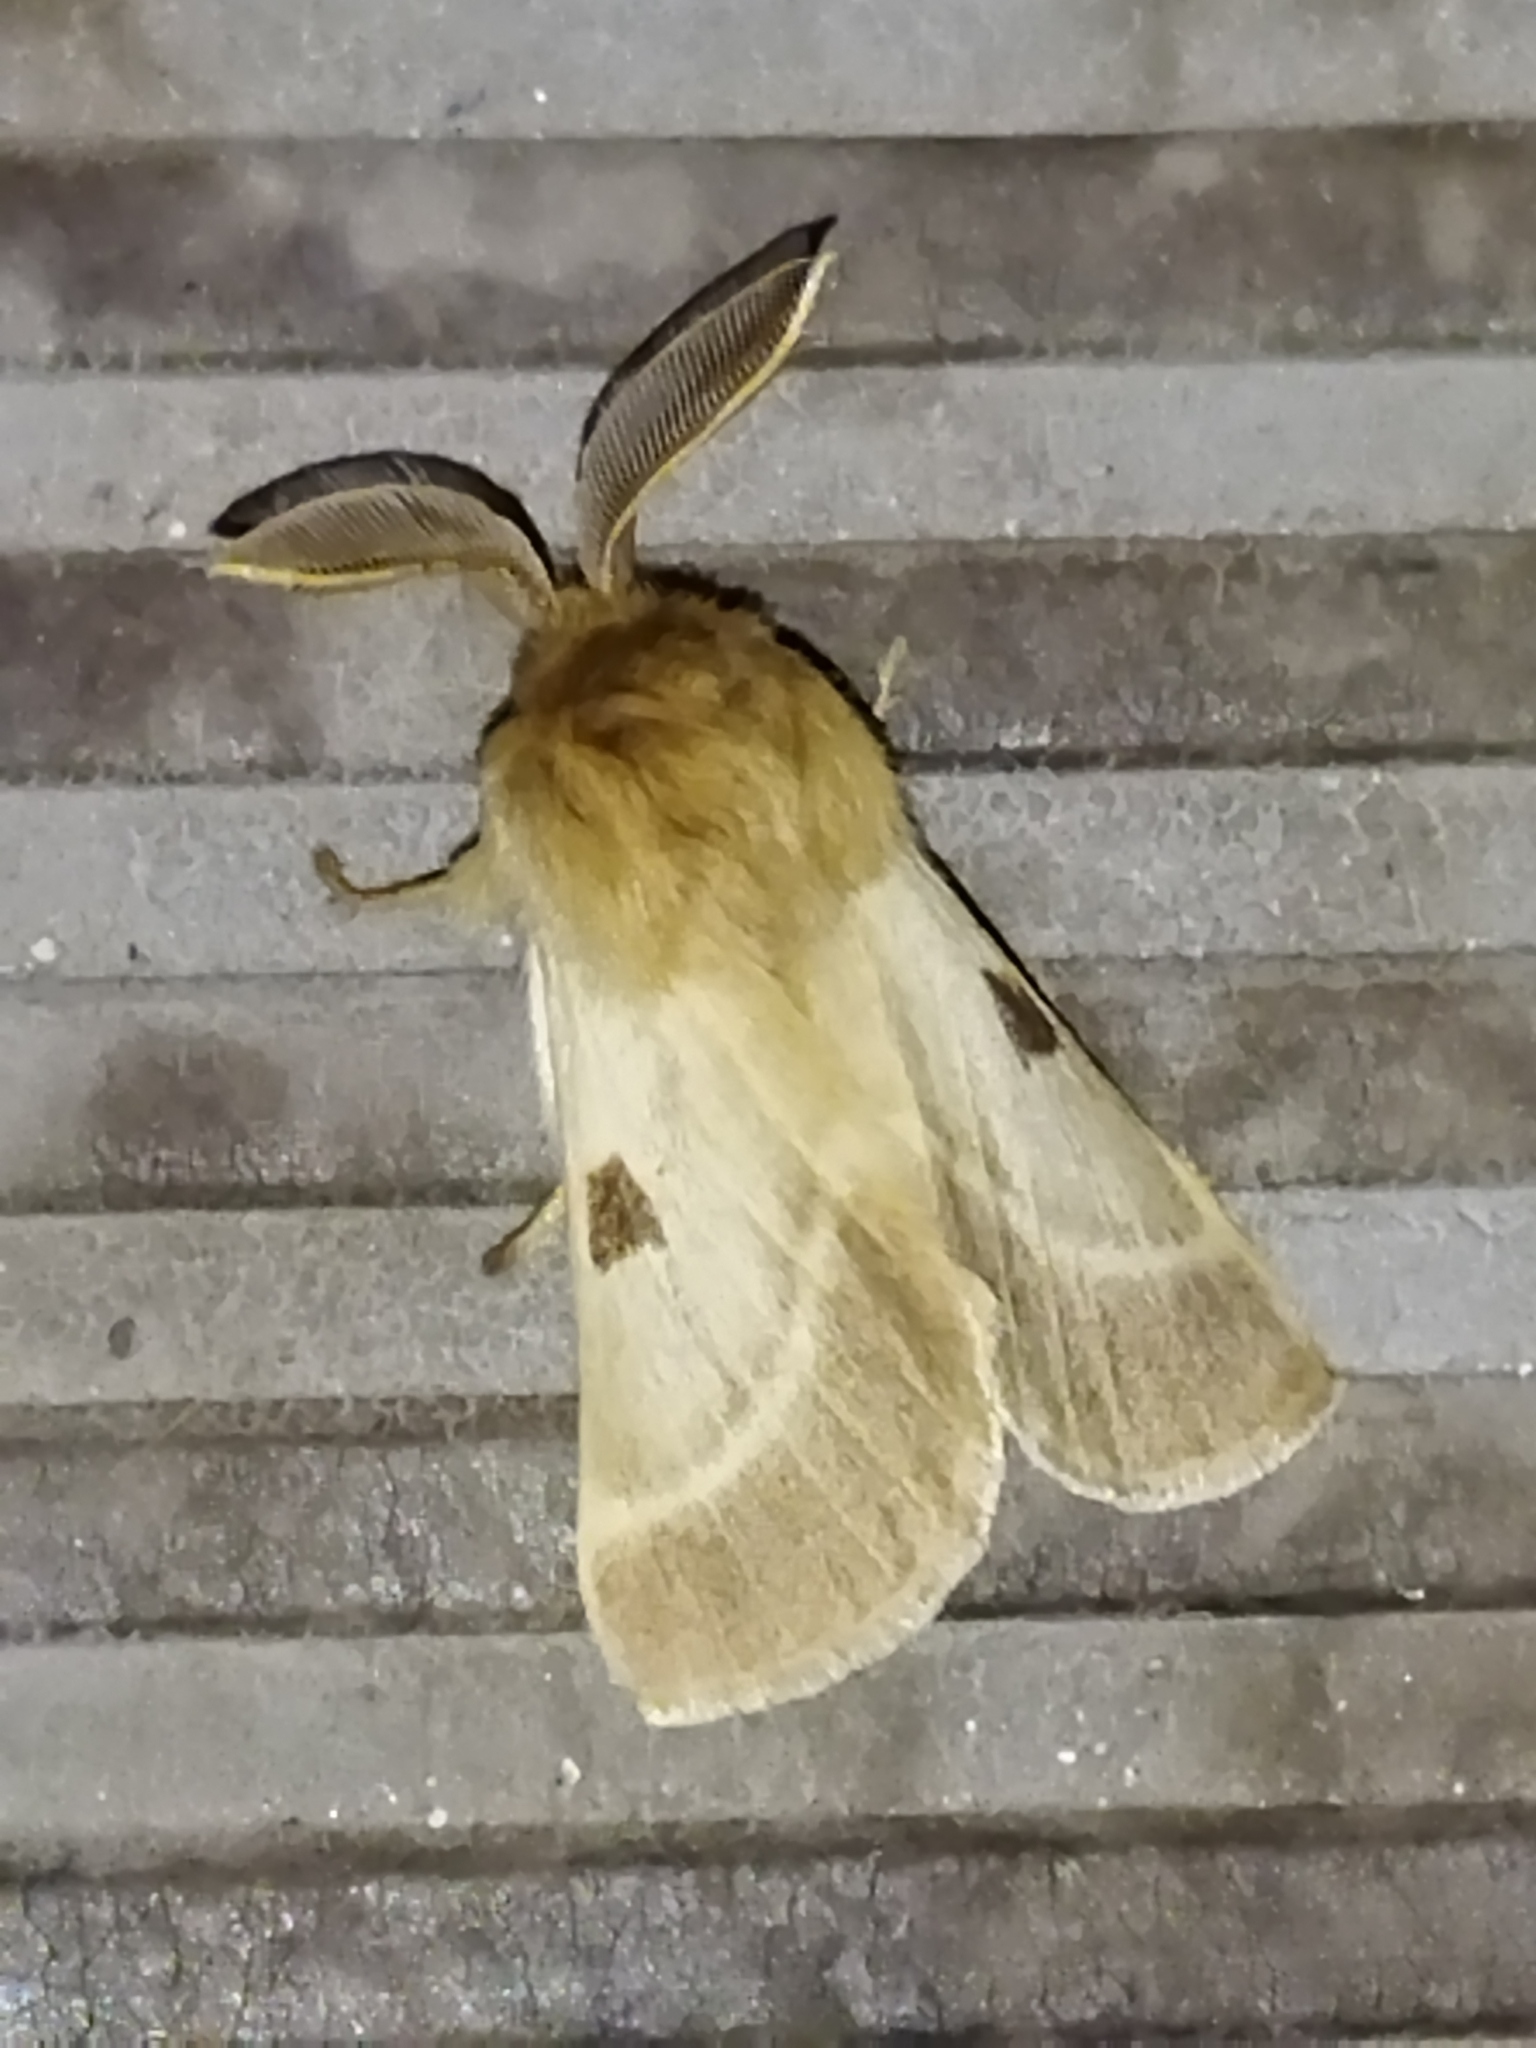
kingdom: Animalia
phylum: Arthropoda
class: Insecta
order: Lepidoptera
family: Brahmaeidae
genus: Lemonia
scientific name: Lemonia balcanica
